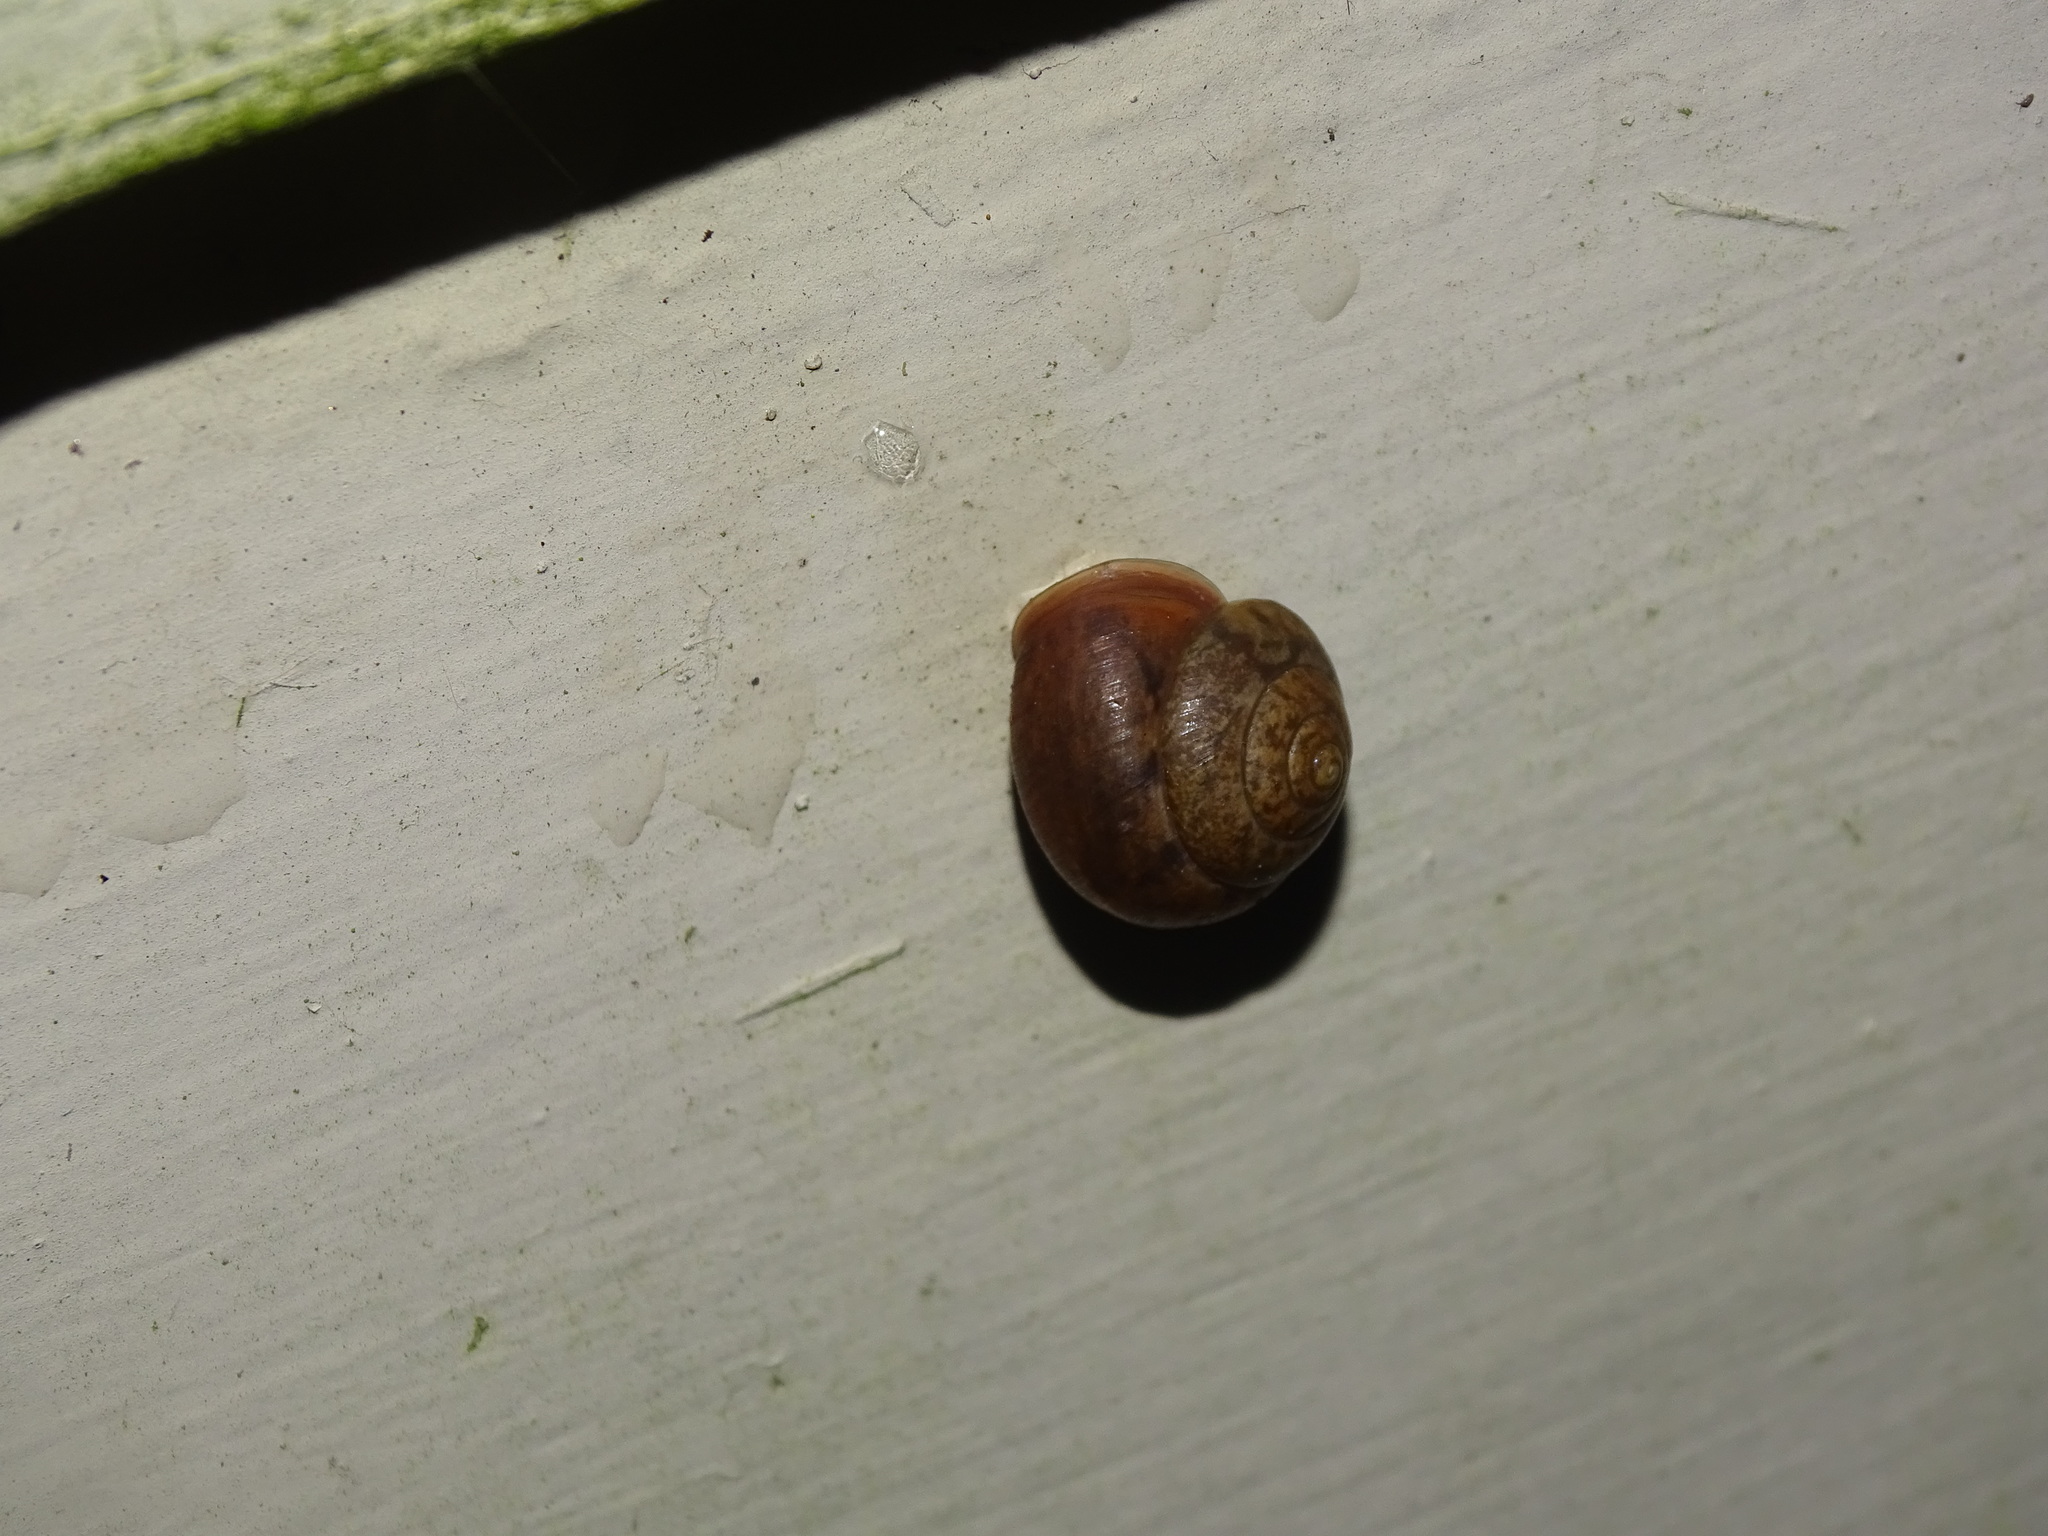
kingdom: Animalia
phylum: Mollusca
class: Gastropoda
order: Stylommatophora
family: Camaenidae
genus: Bradybaena
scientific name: Bradybaena similaris
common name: Asian trampsnail
